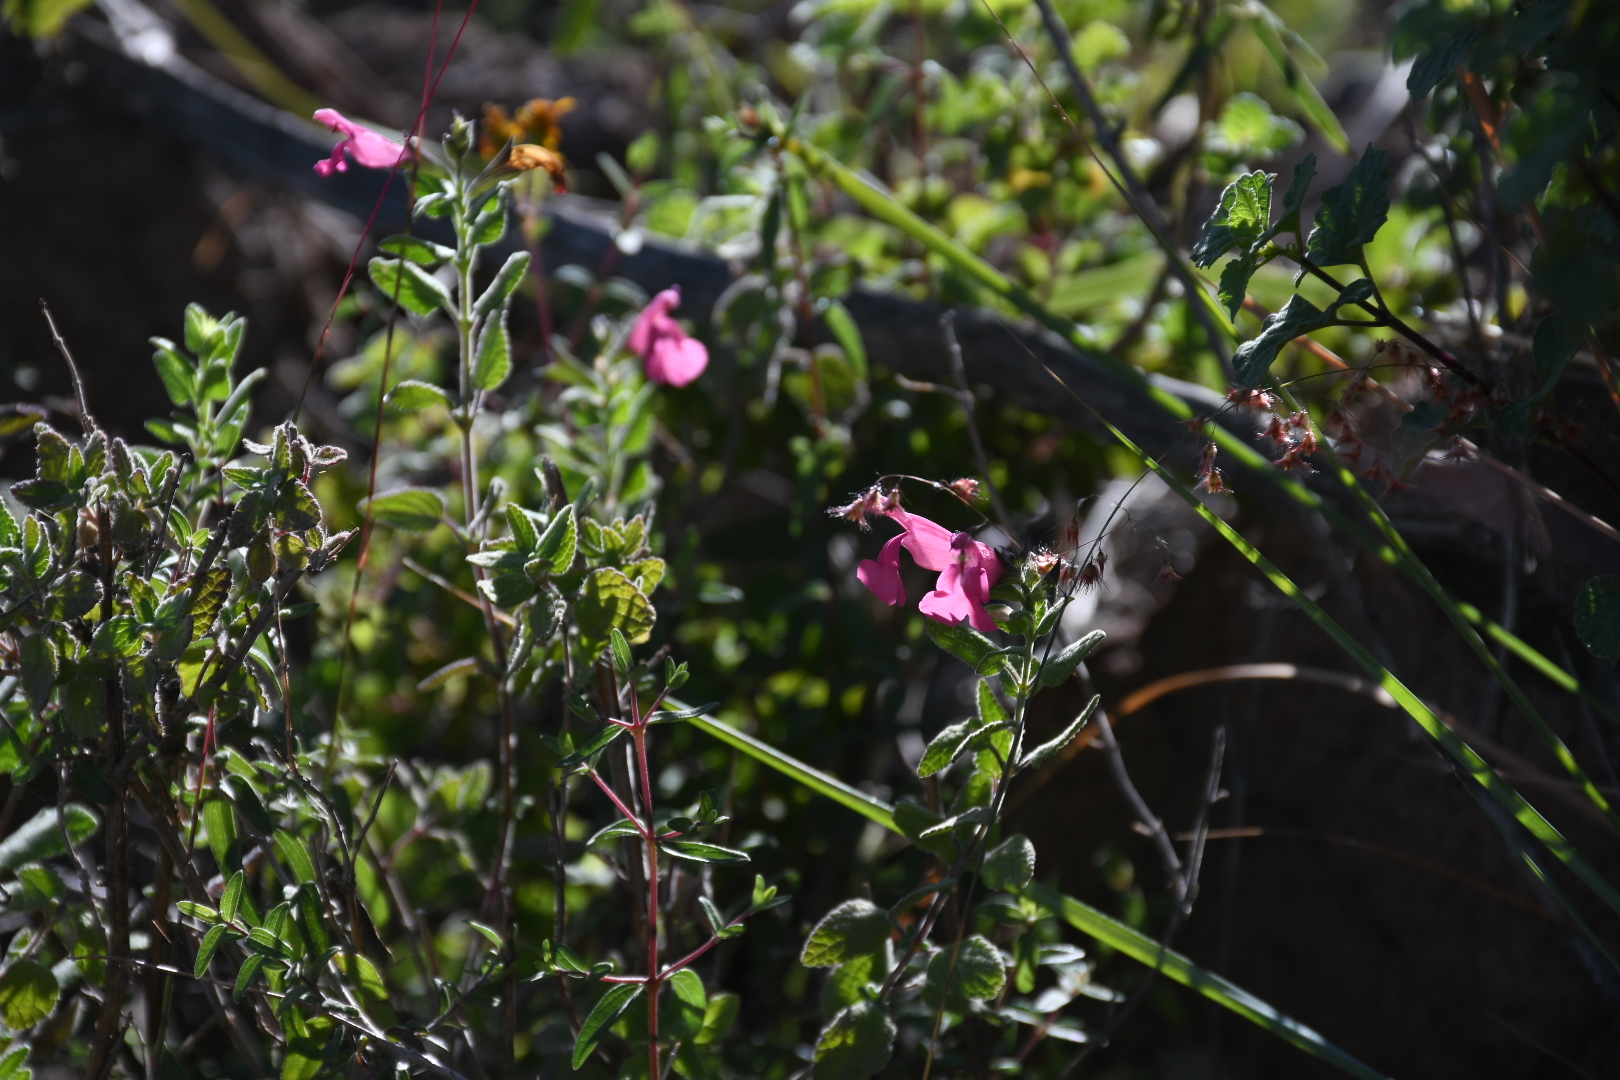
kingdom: Plantae
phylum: Tracheophyta
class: Magnoliopsida
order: Lamiales
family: Lamiaceae
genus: Salvia
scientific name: Salvia microphylla
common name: Baby sage
